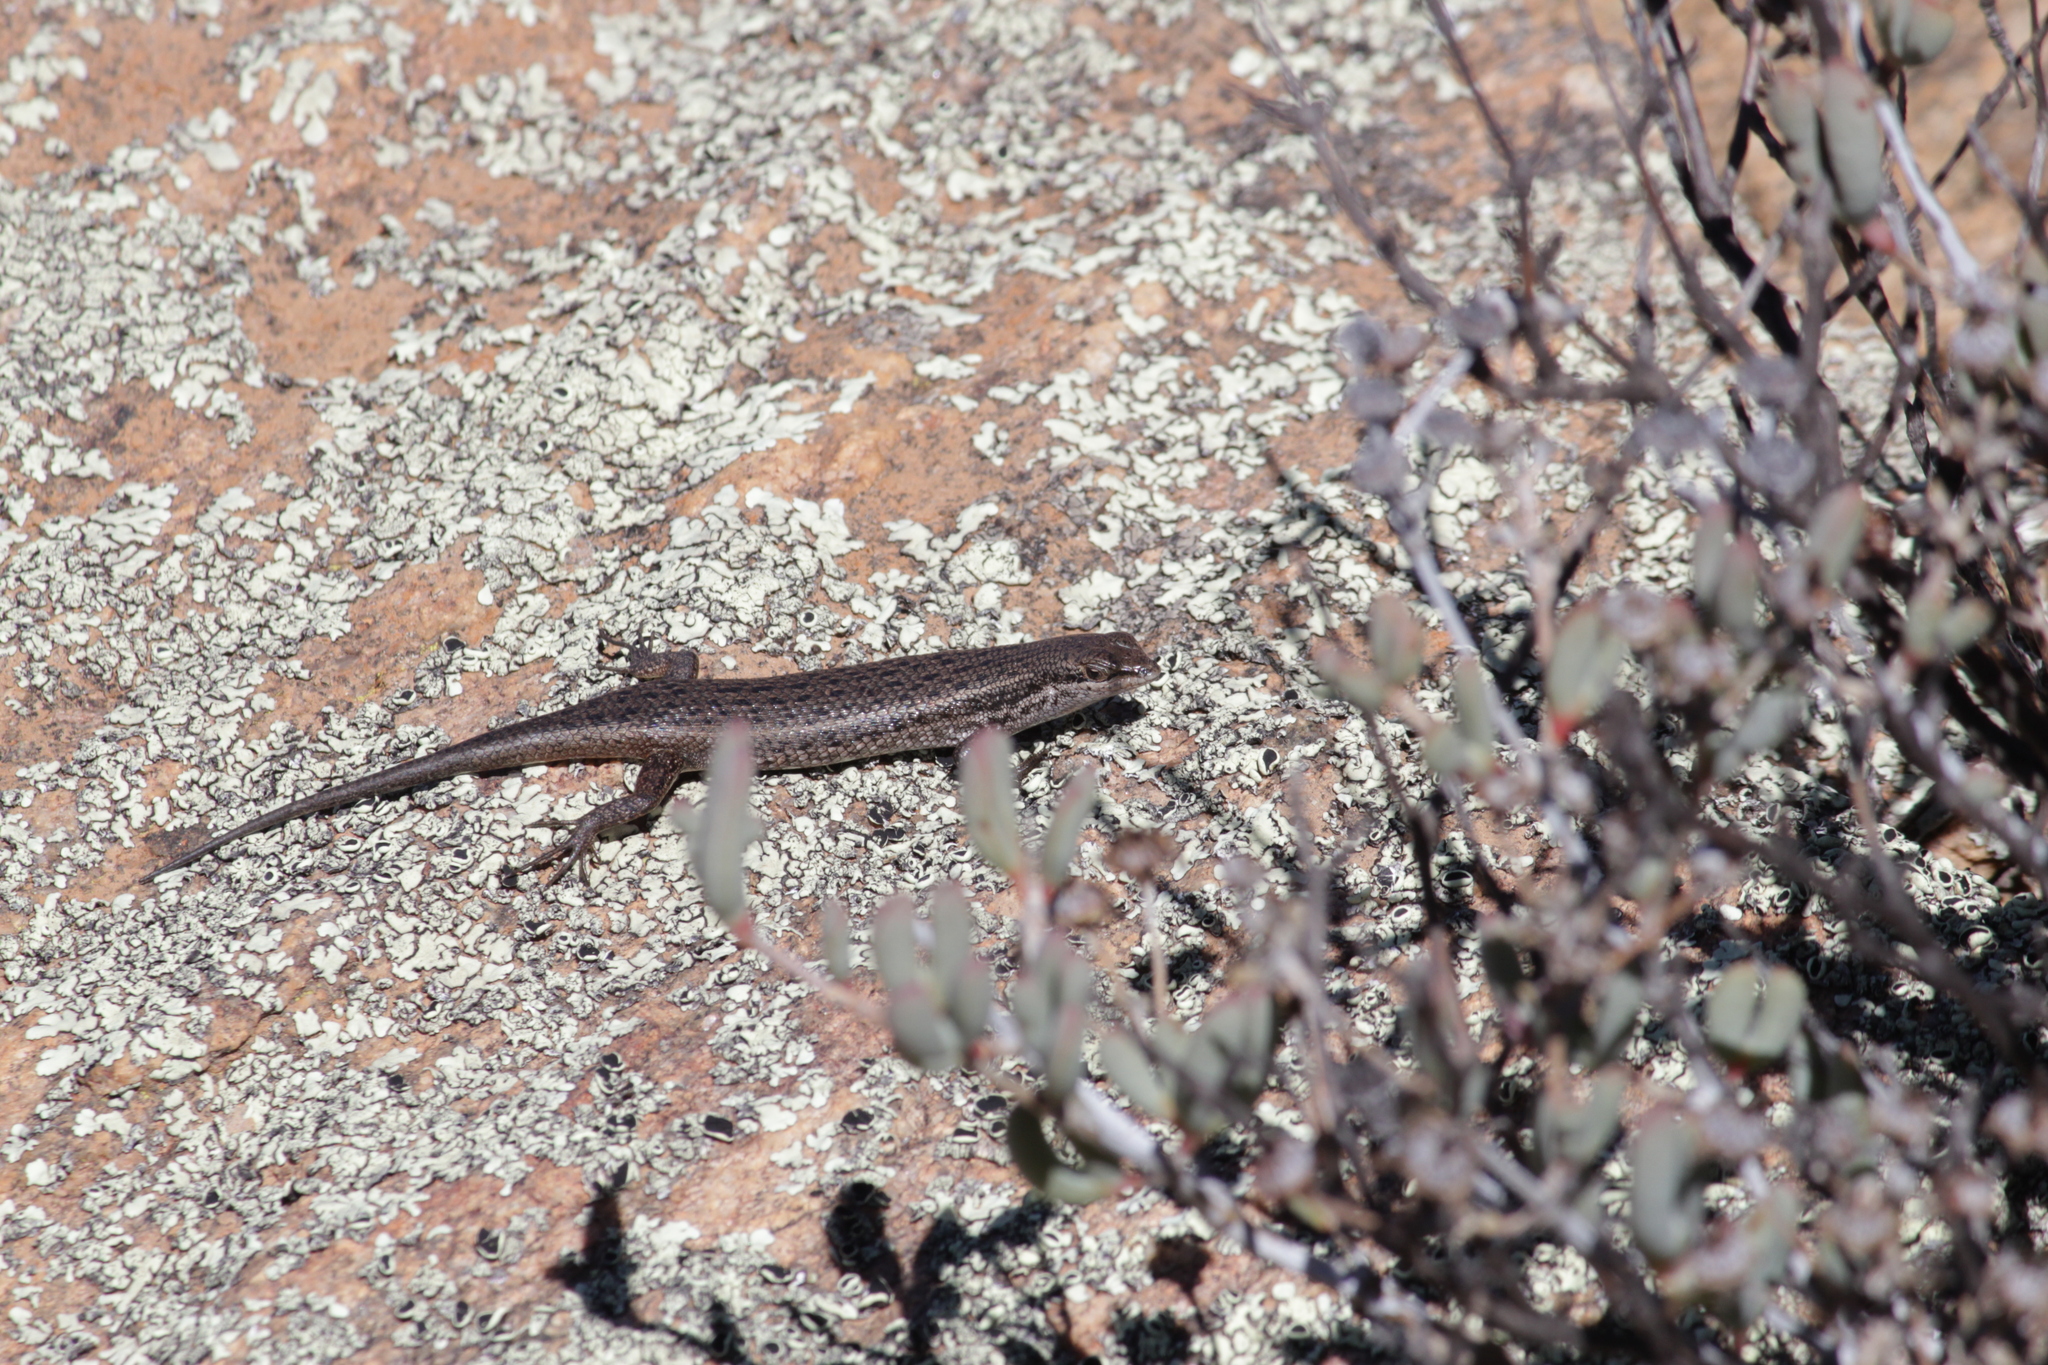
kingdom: Animalia
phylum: Chordata
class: Squamata
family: Scincidae
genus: Trachylepis
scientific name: Trachylepis variegata
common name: Variegated skink
